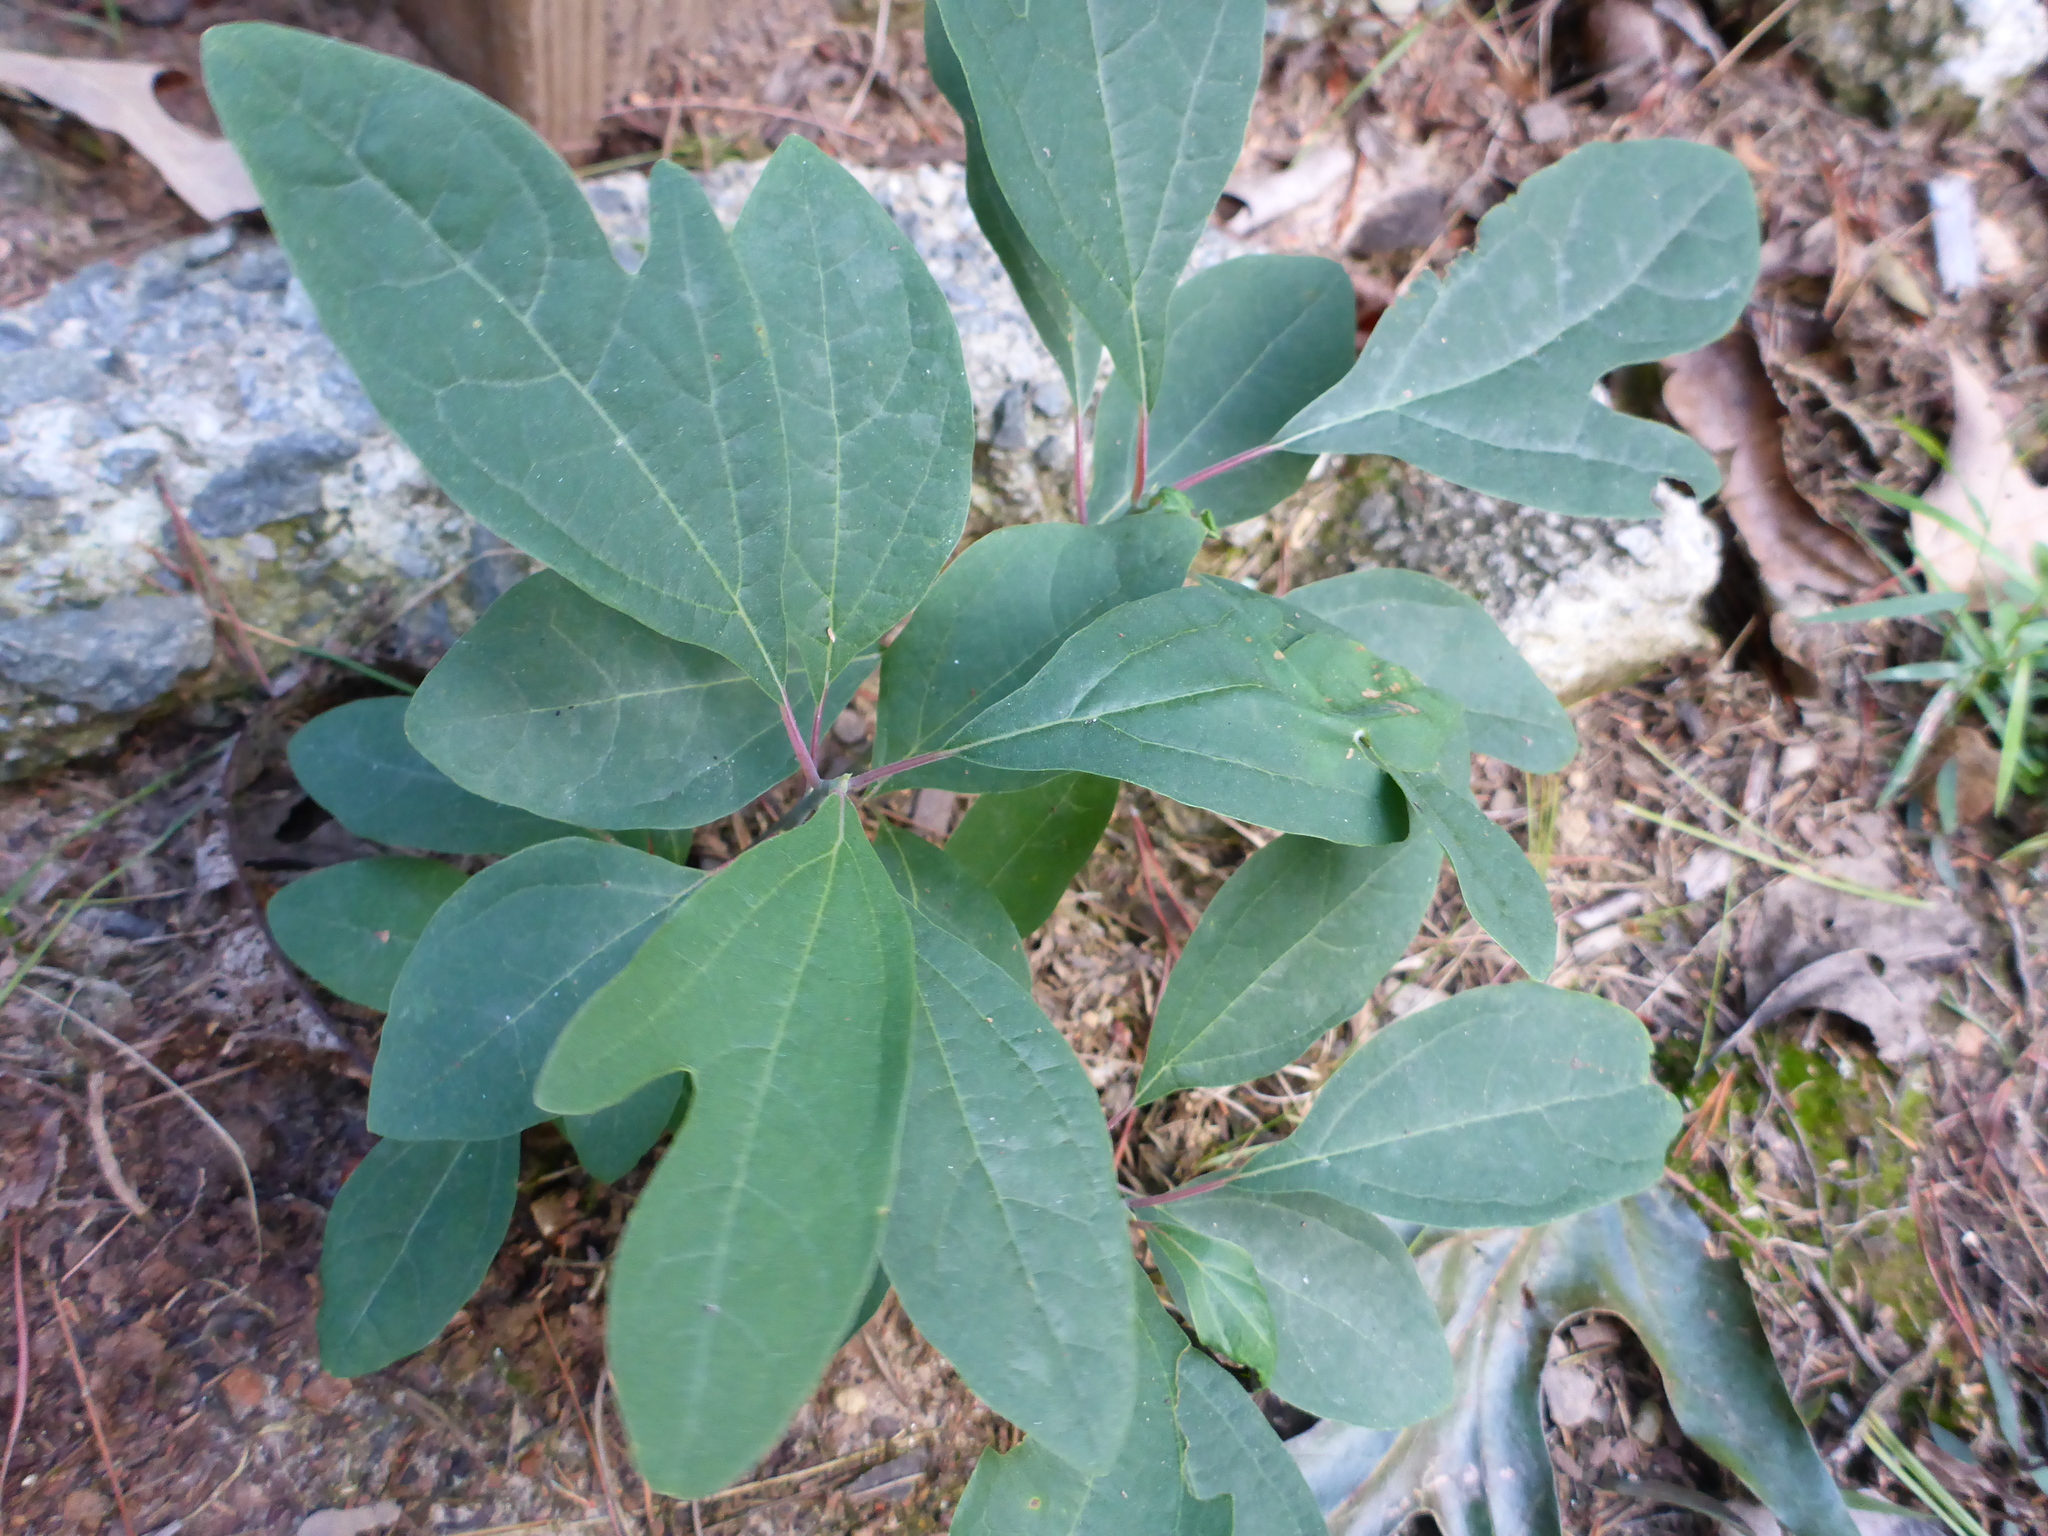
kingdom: Plantae
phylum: Tracheophyta
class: Magnoliopsida
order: Laurales
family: Lauraceae
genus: Sassafras
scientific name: Sassafras albidum
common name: Sassafras
